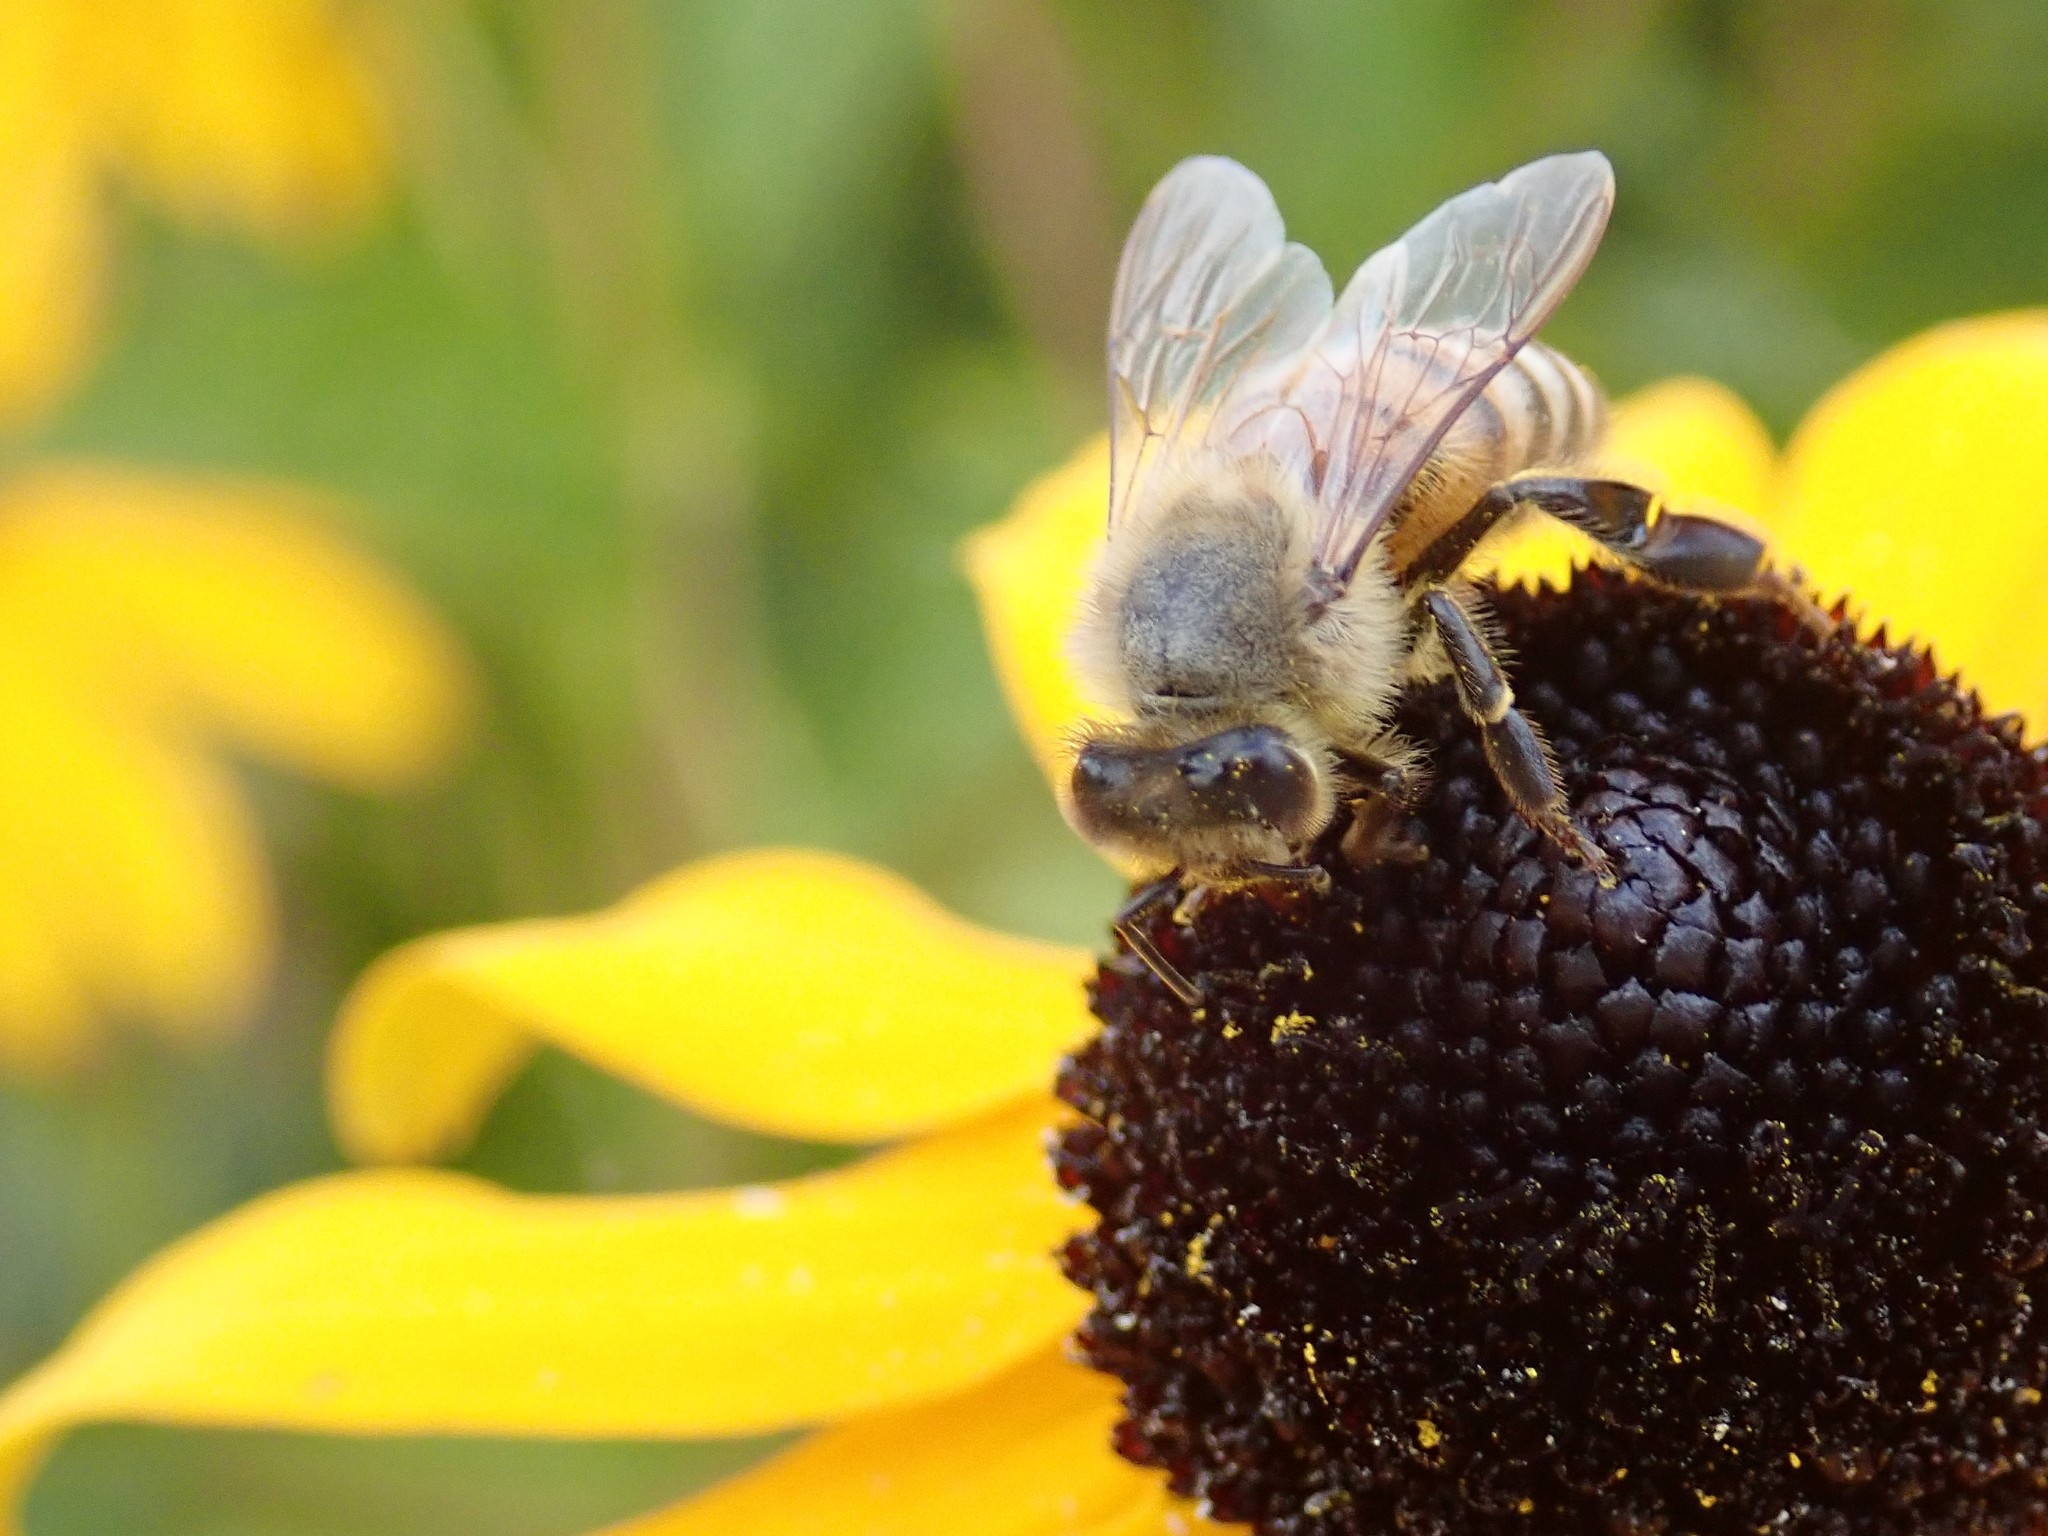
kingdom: Animalia
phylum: Arthropoda
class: Insecta
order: Hymenoptera
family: Apidae
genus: Apis
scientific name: Apis mellifera
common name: Honey bee
